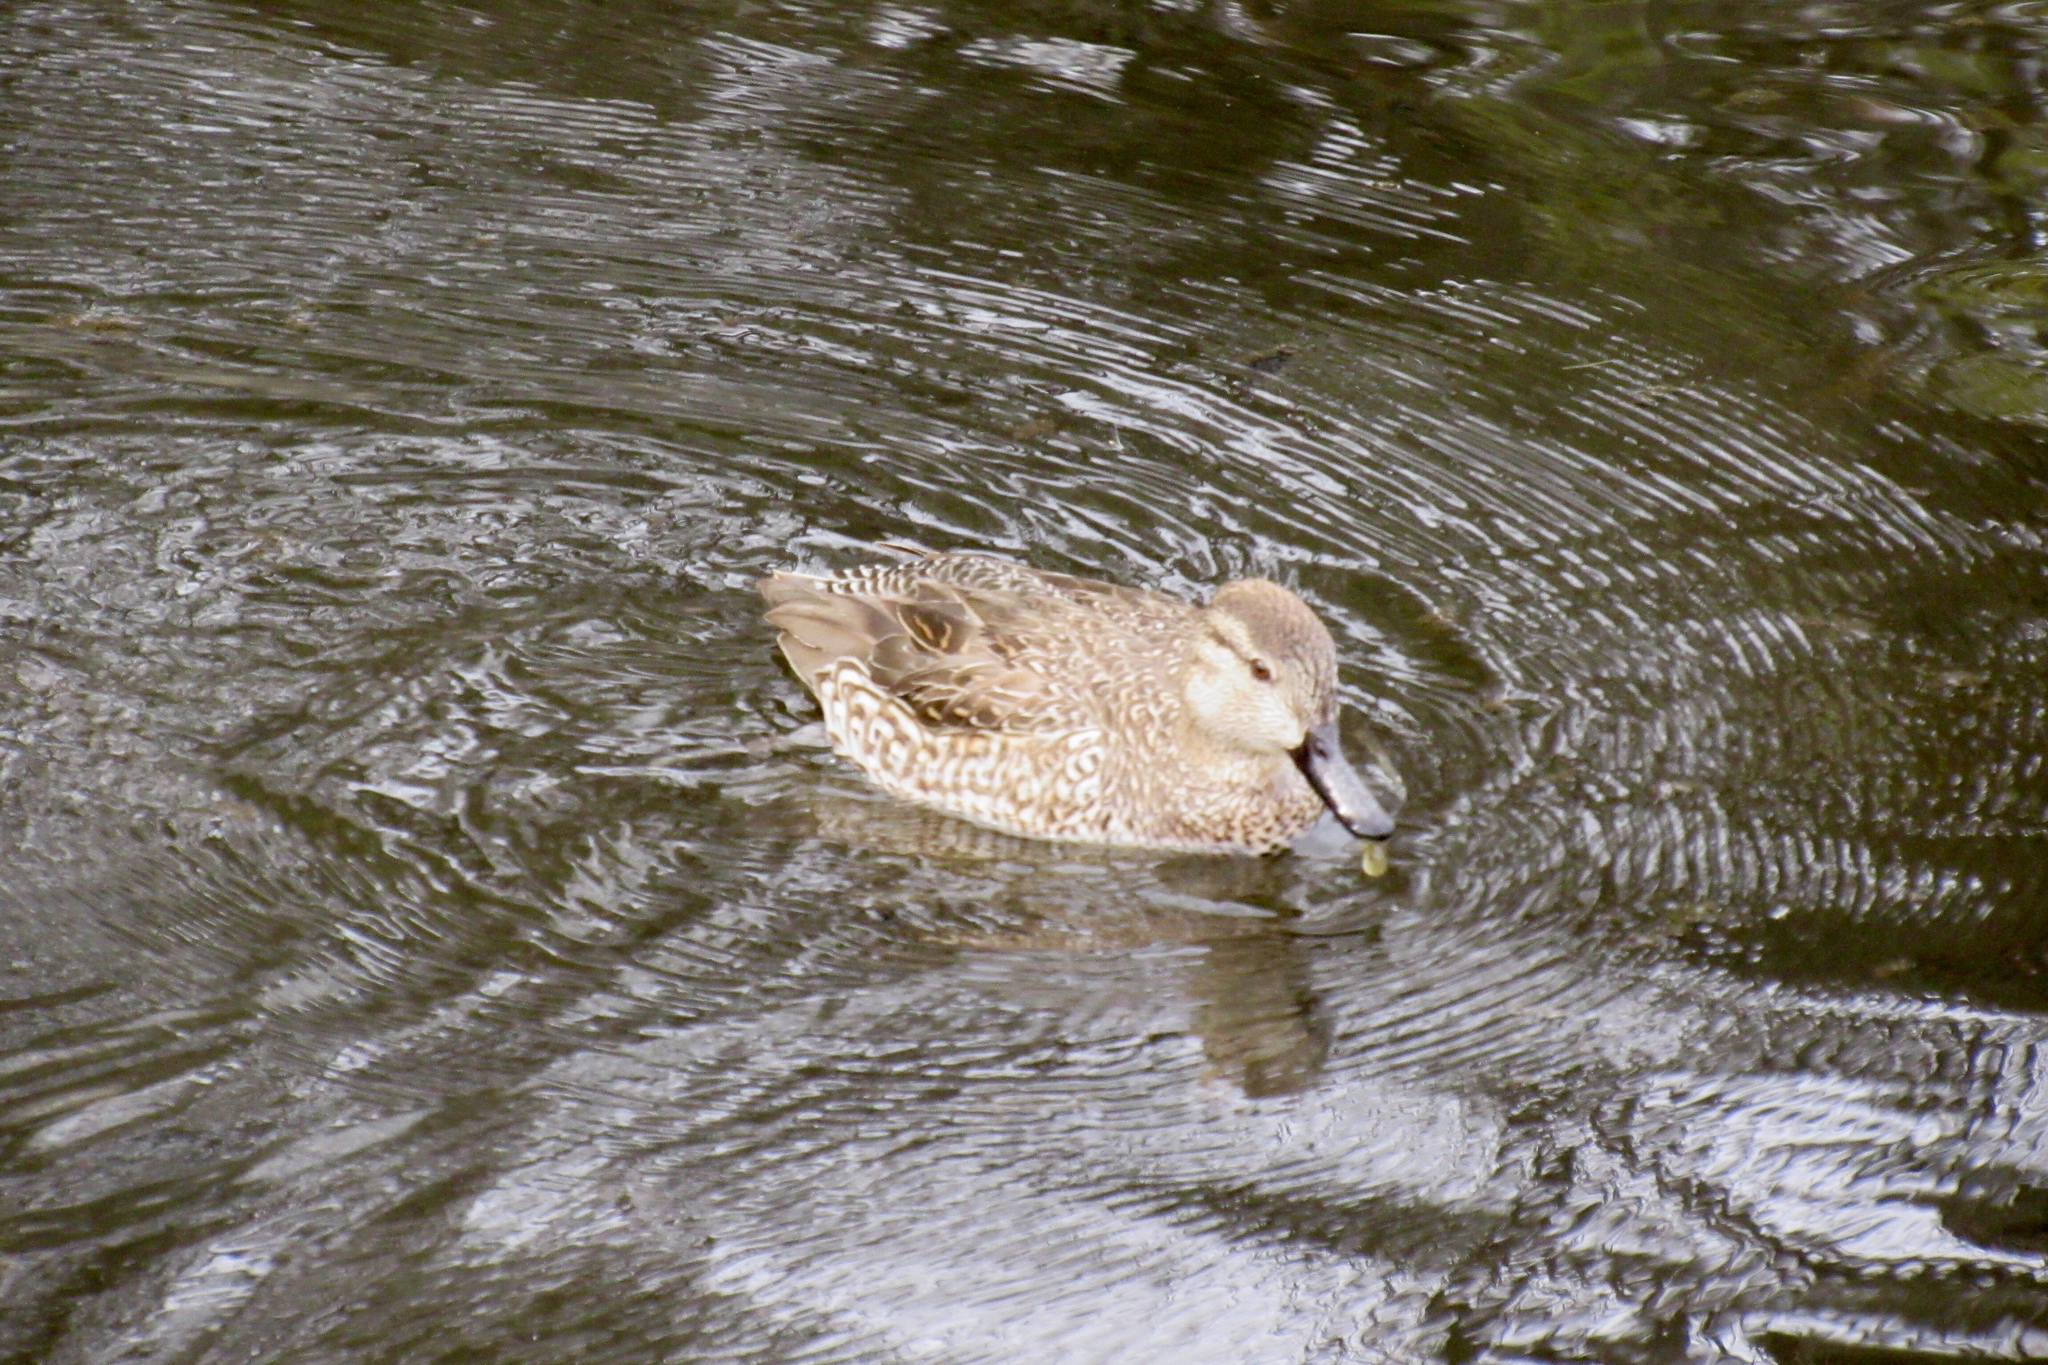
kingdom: Animalia
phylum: Chordata
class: Aves
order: Anseriformes
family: Anatidae
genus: Anas
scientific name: Anas crecca
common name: Eurasian teal
